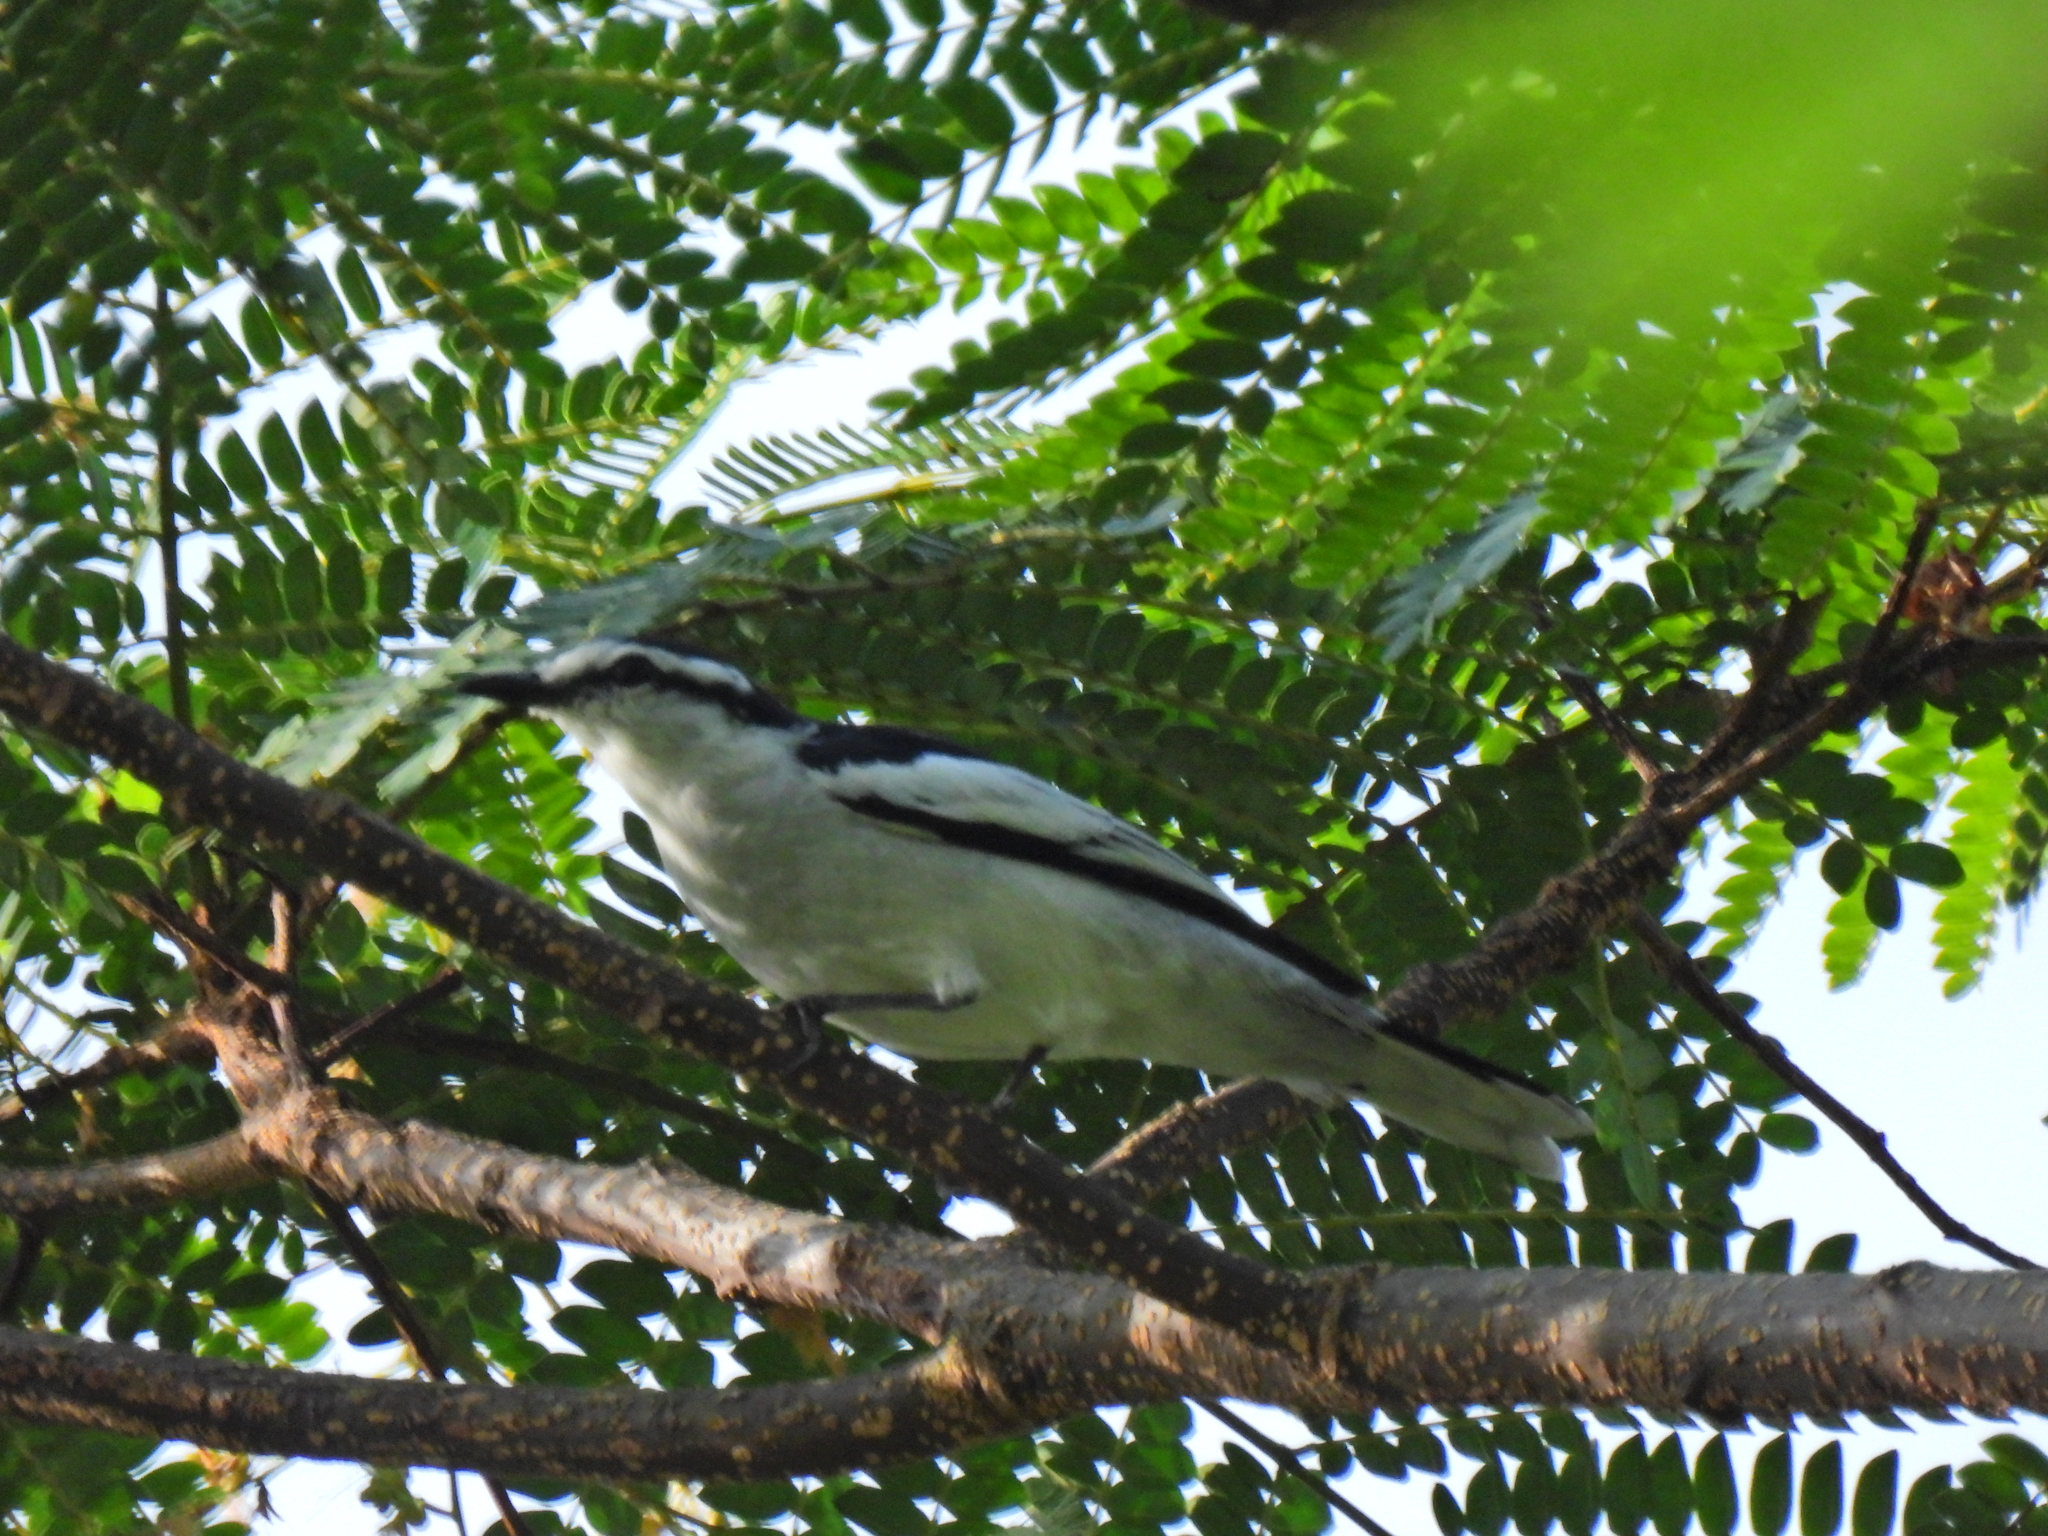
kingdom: Animalia
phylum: Chordata
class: Aves
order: Passeriformes
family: Campephagidae
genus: Lalage
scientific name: Lalage nigra
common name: Pied triller
